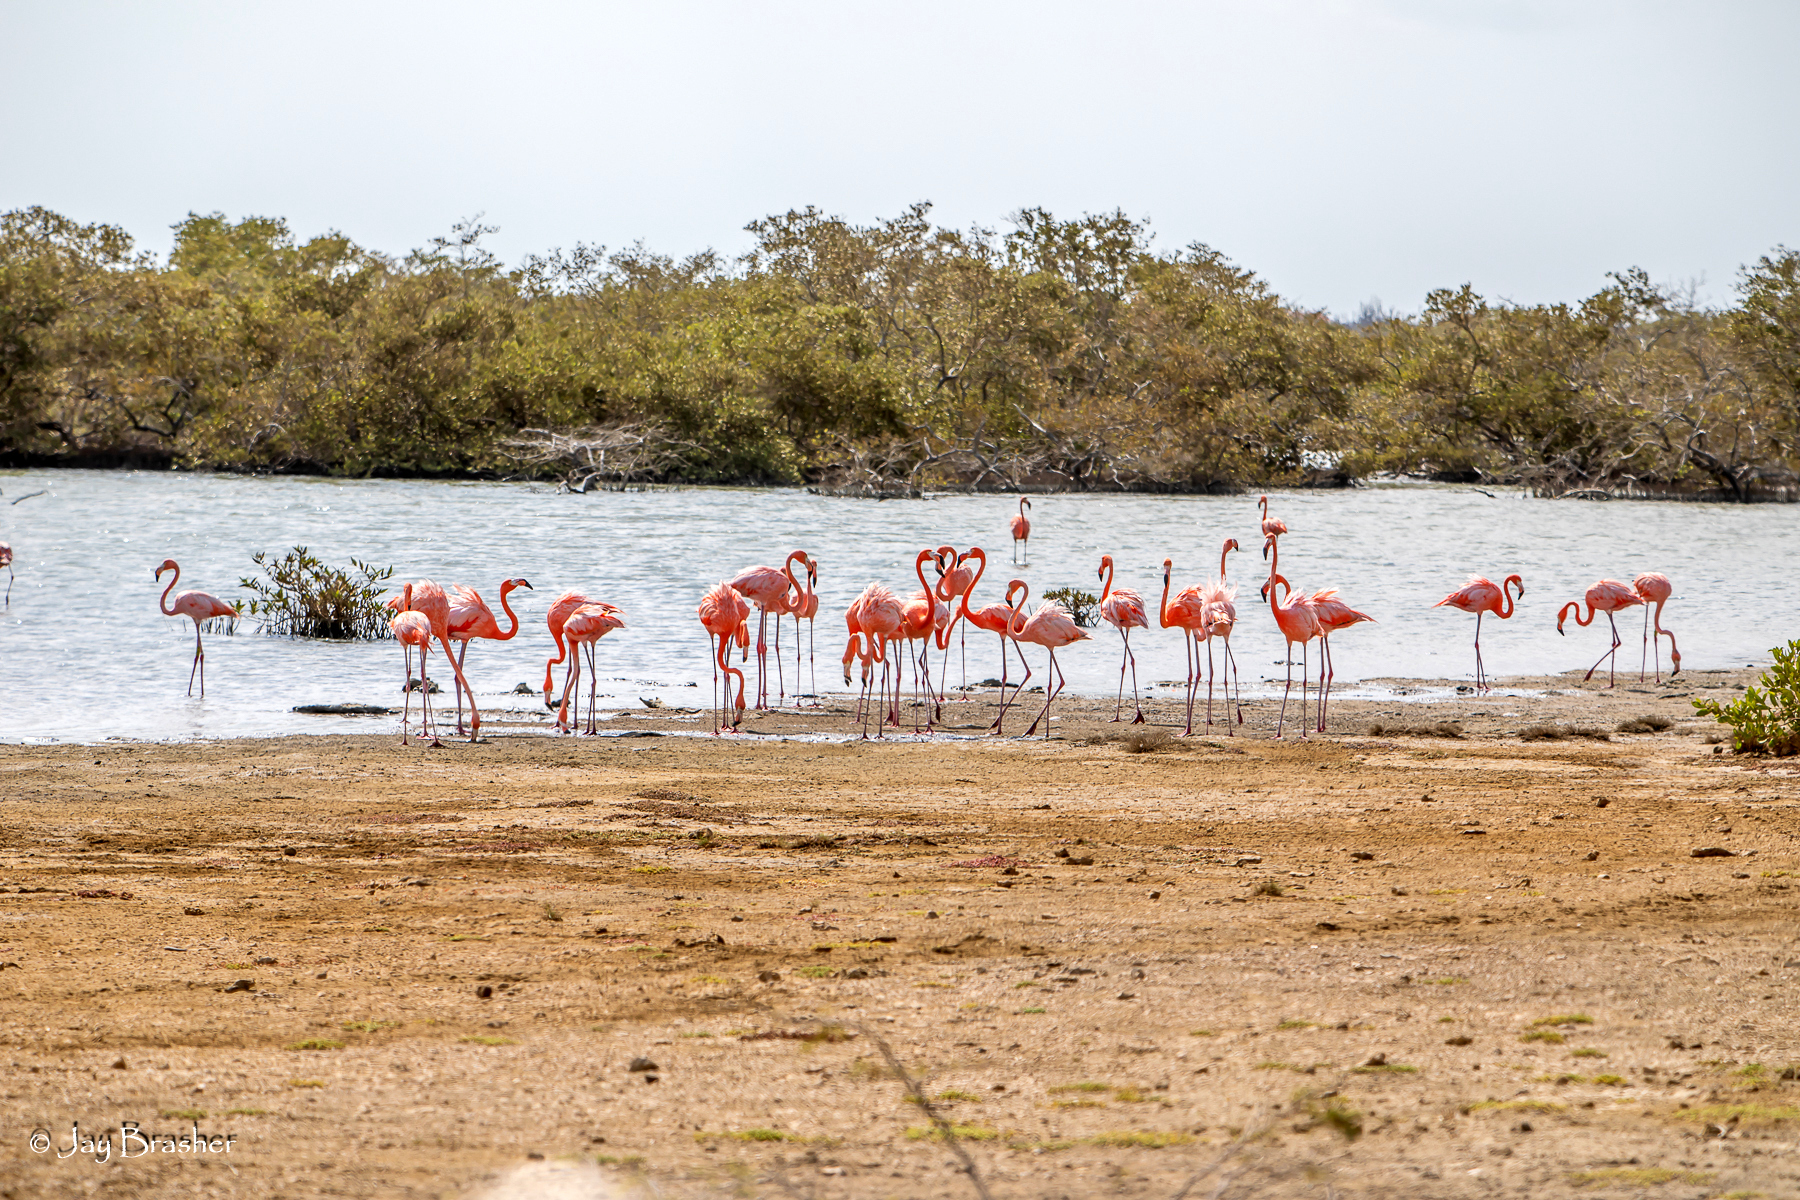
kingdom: Animalia
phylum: Chordata
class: Aves
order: Phoenicopteriformes
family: Phoenicopteridae
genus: Phoenicopterus
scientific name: Phoenicopterus ruber
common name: American flamingo
